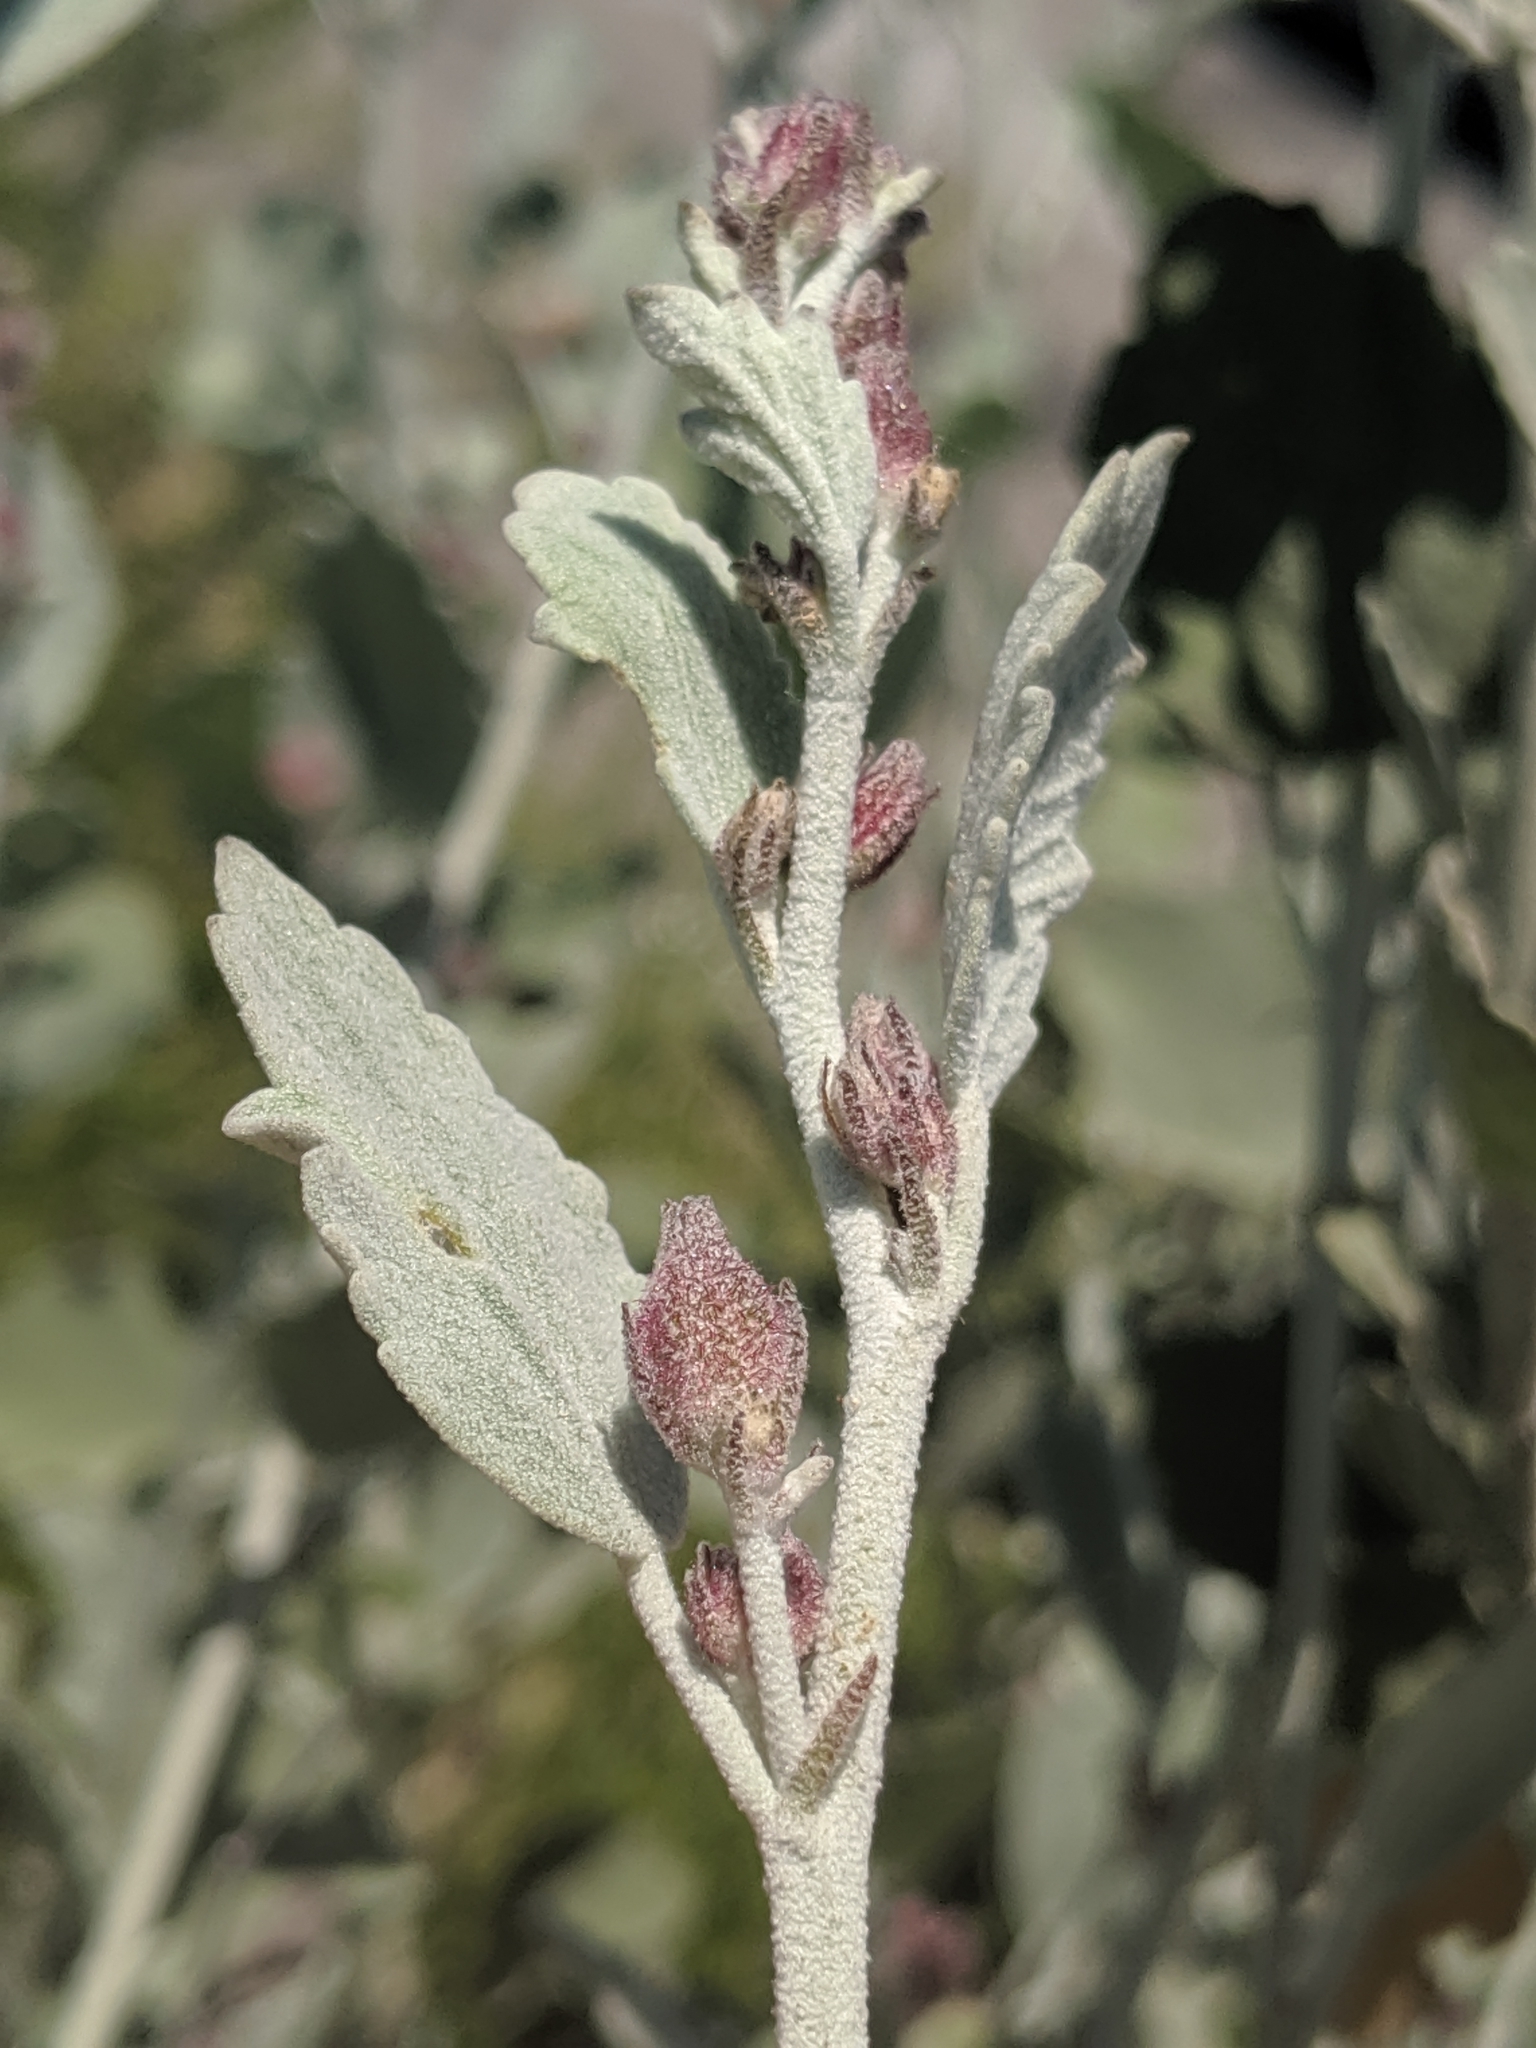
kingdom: Plantae
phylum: Tracheophyta
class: Magnoliopsida
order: Malvales
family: Malvaceae
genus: Malacothamnus
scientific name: Malacothamnus jonesii
